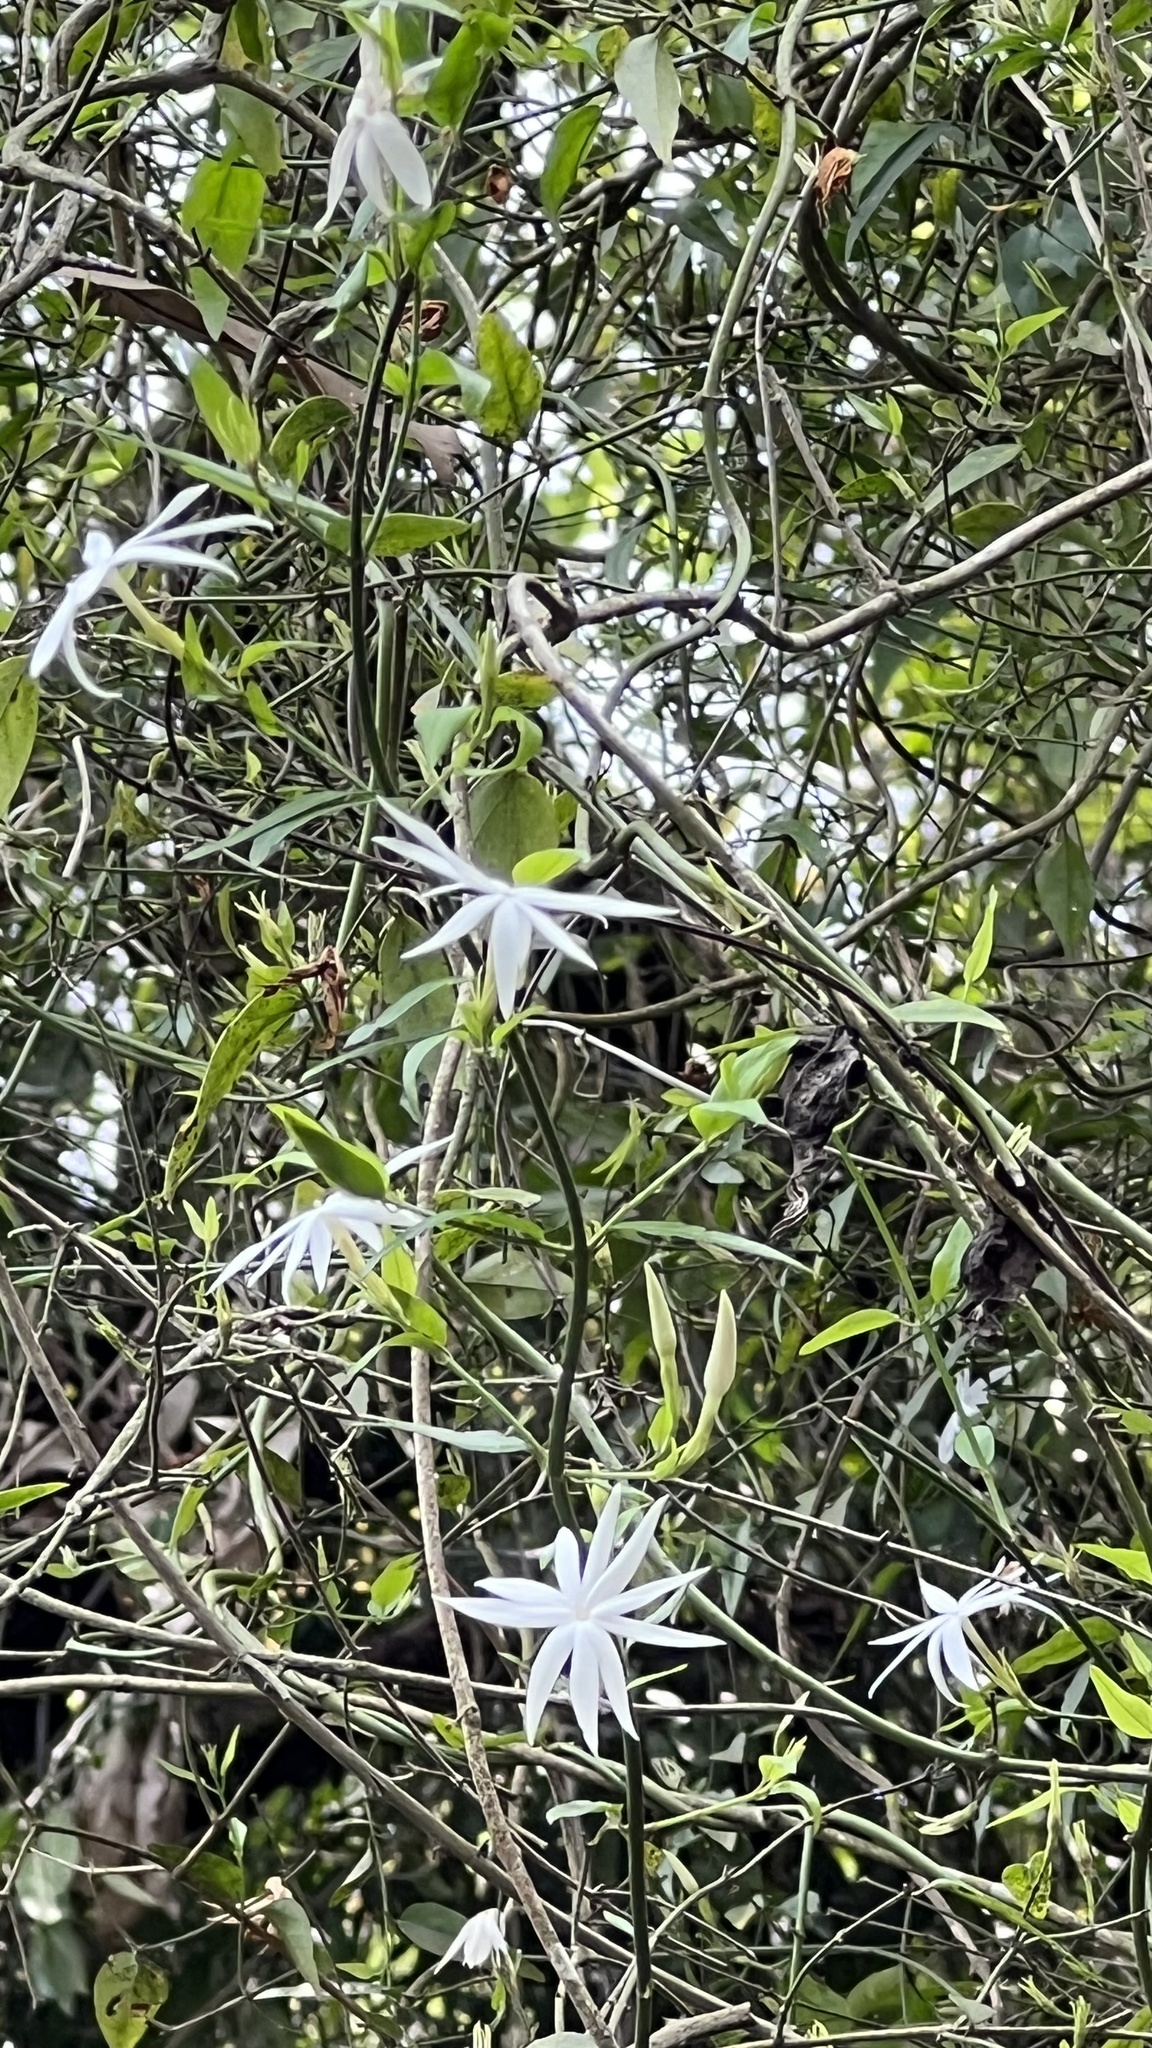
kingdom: Plantae
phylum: Tracheophyta
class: Magnoliopsida
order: Lamiales
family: Oleaceae
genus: Jasminum
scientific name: Jasminum nervosum
